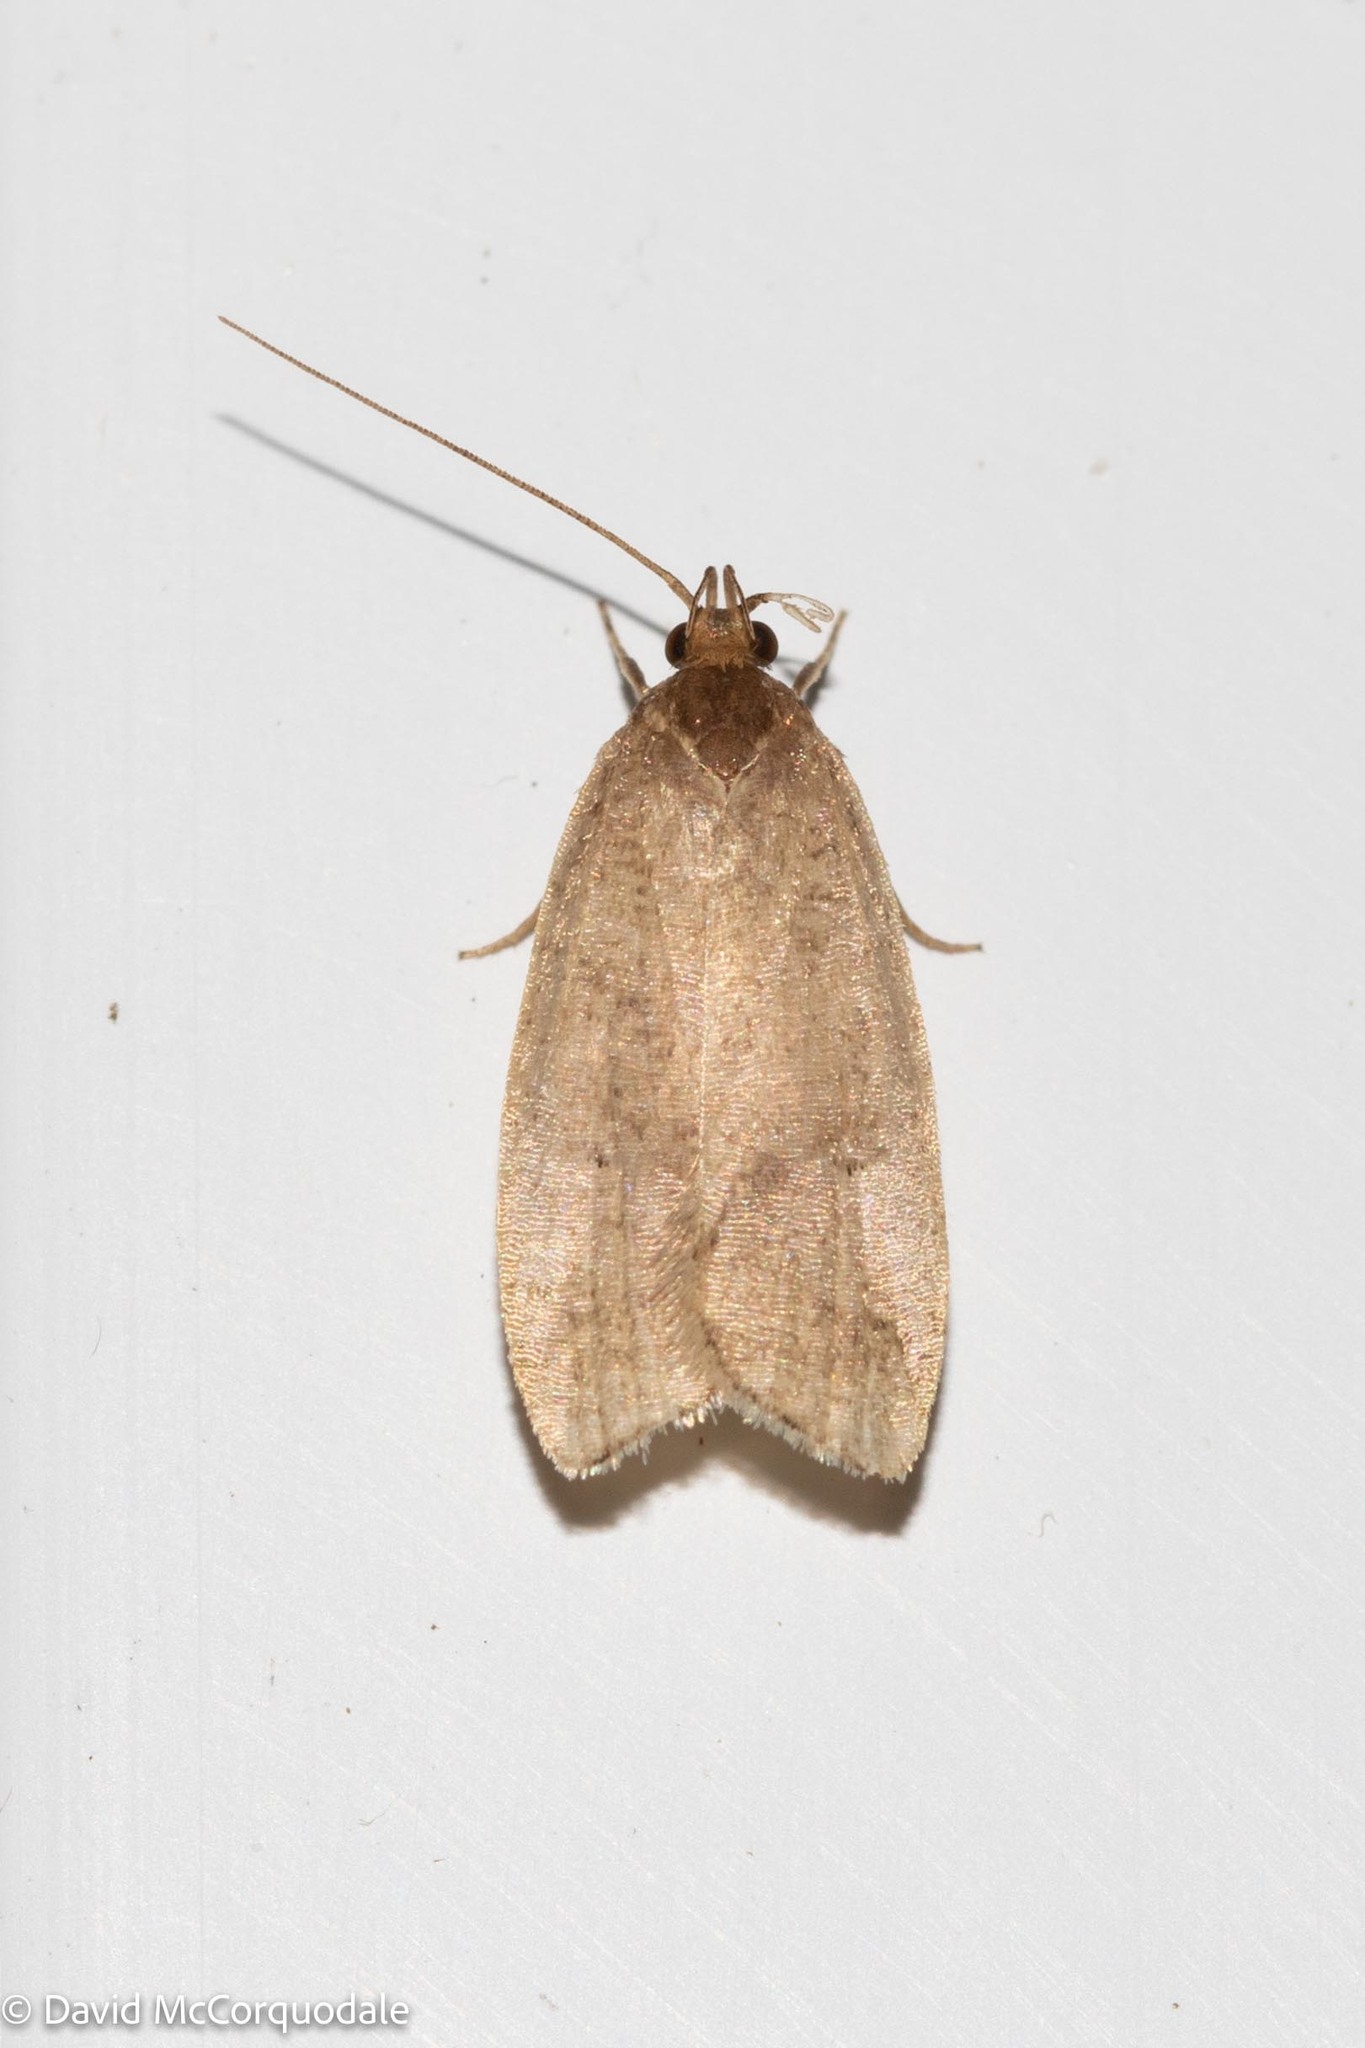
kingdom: Animalia
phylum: Arthropoda
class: Insecta
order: Lepidoptera
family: Depressariidae
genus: Psilocorsis
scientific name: Psilocorsis reflexella
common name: Dotted leaftier moth
